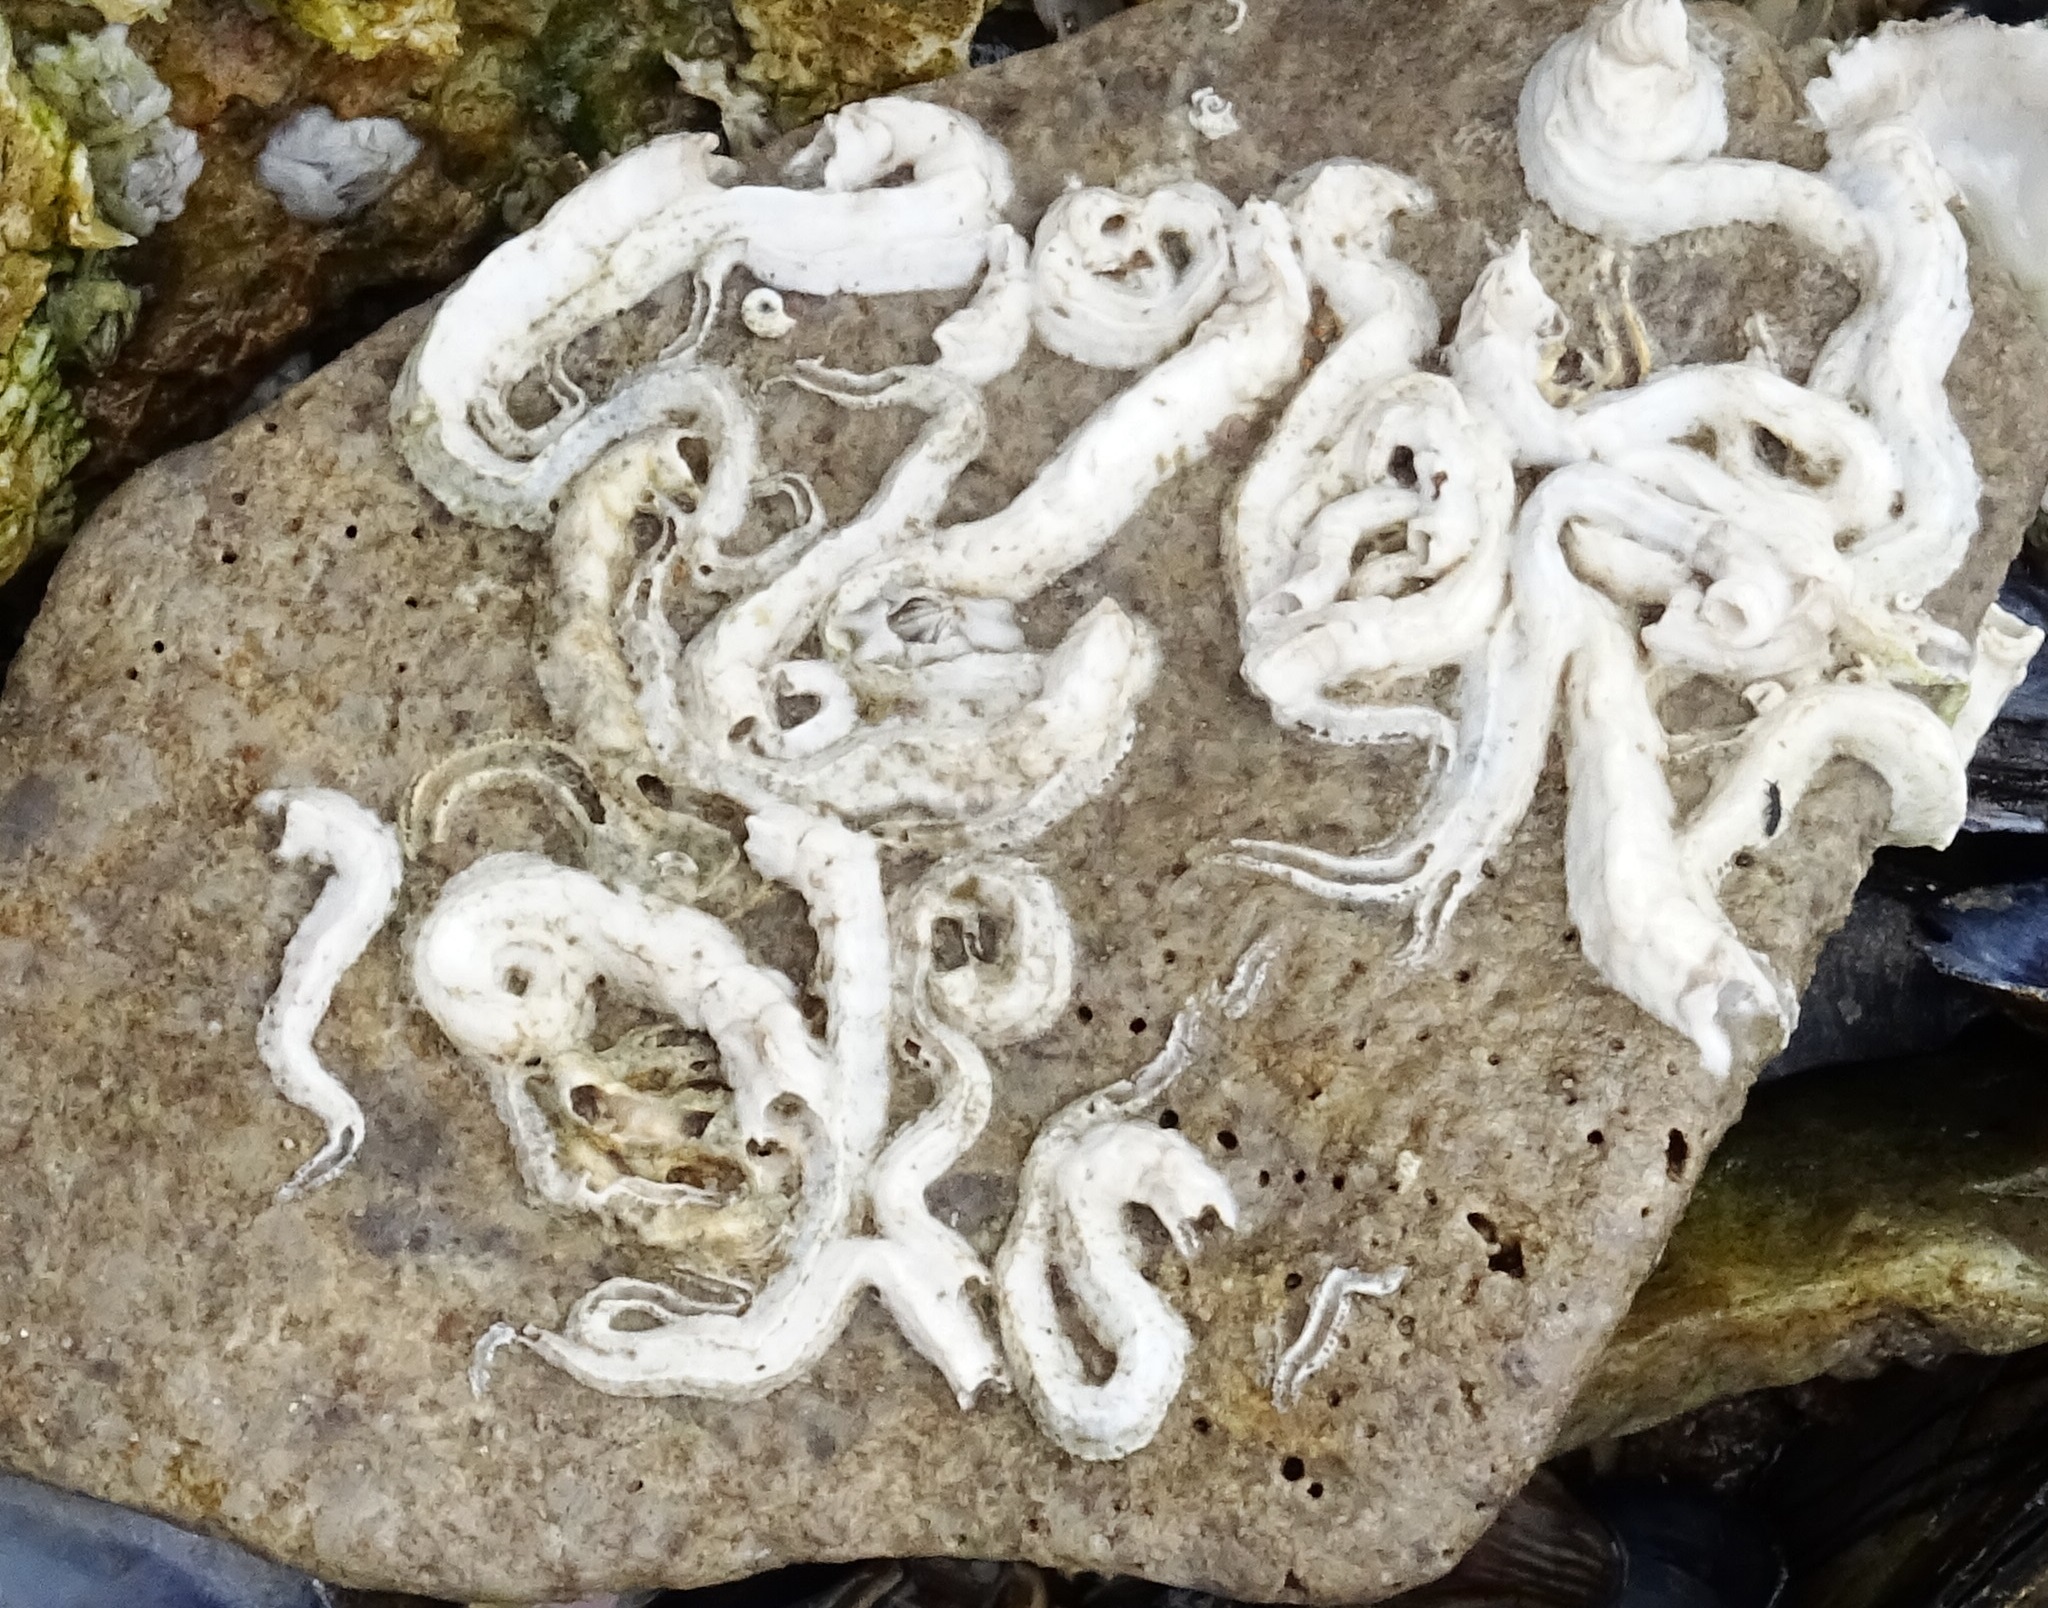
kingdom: Animalia
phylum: Annelida
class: Polychaeta
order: Sabellida
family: Serpulidae
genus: Spirobranchus
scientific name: Spirobranchus triqueter
